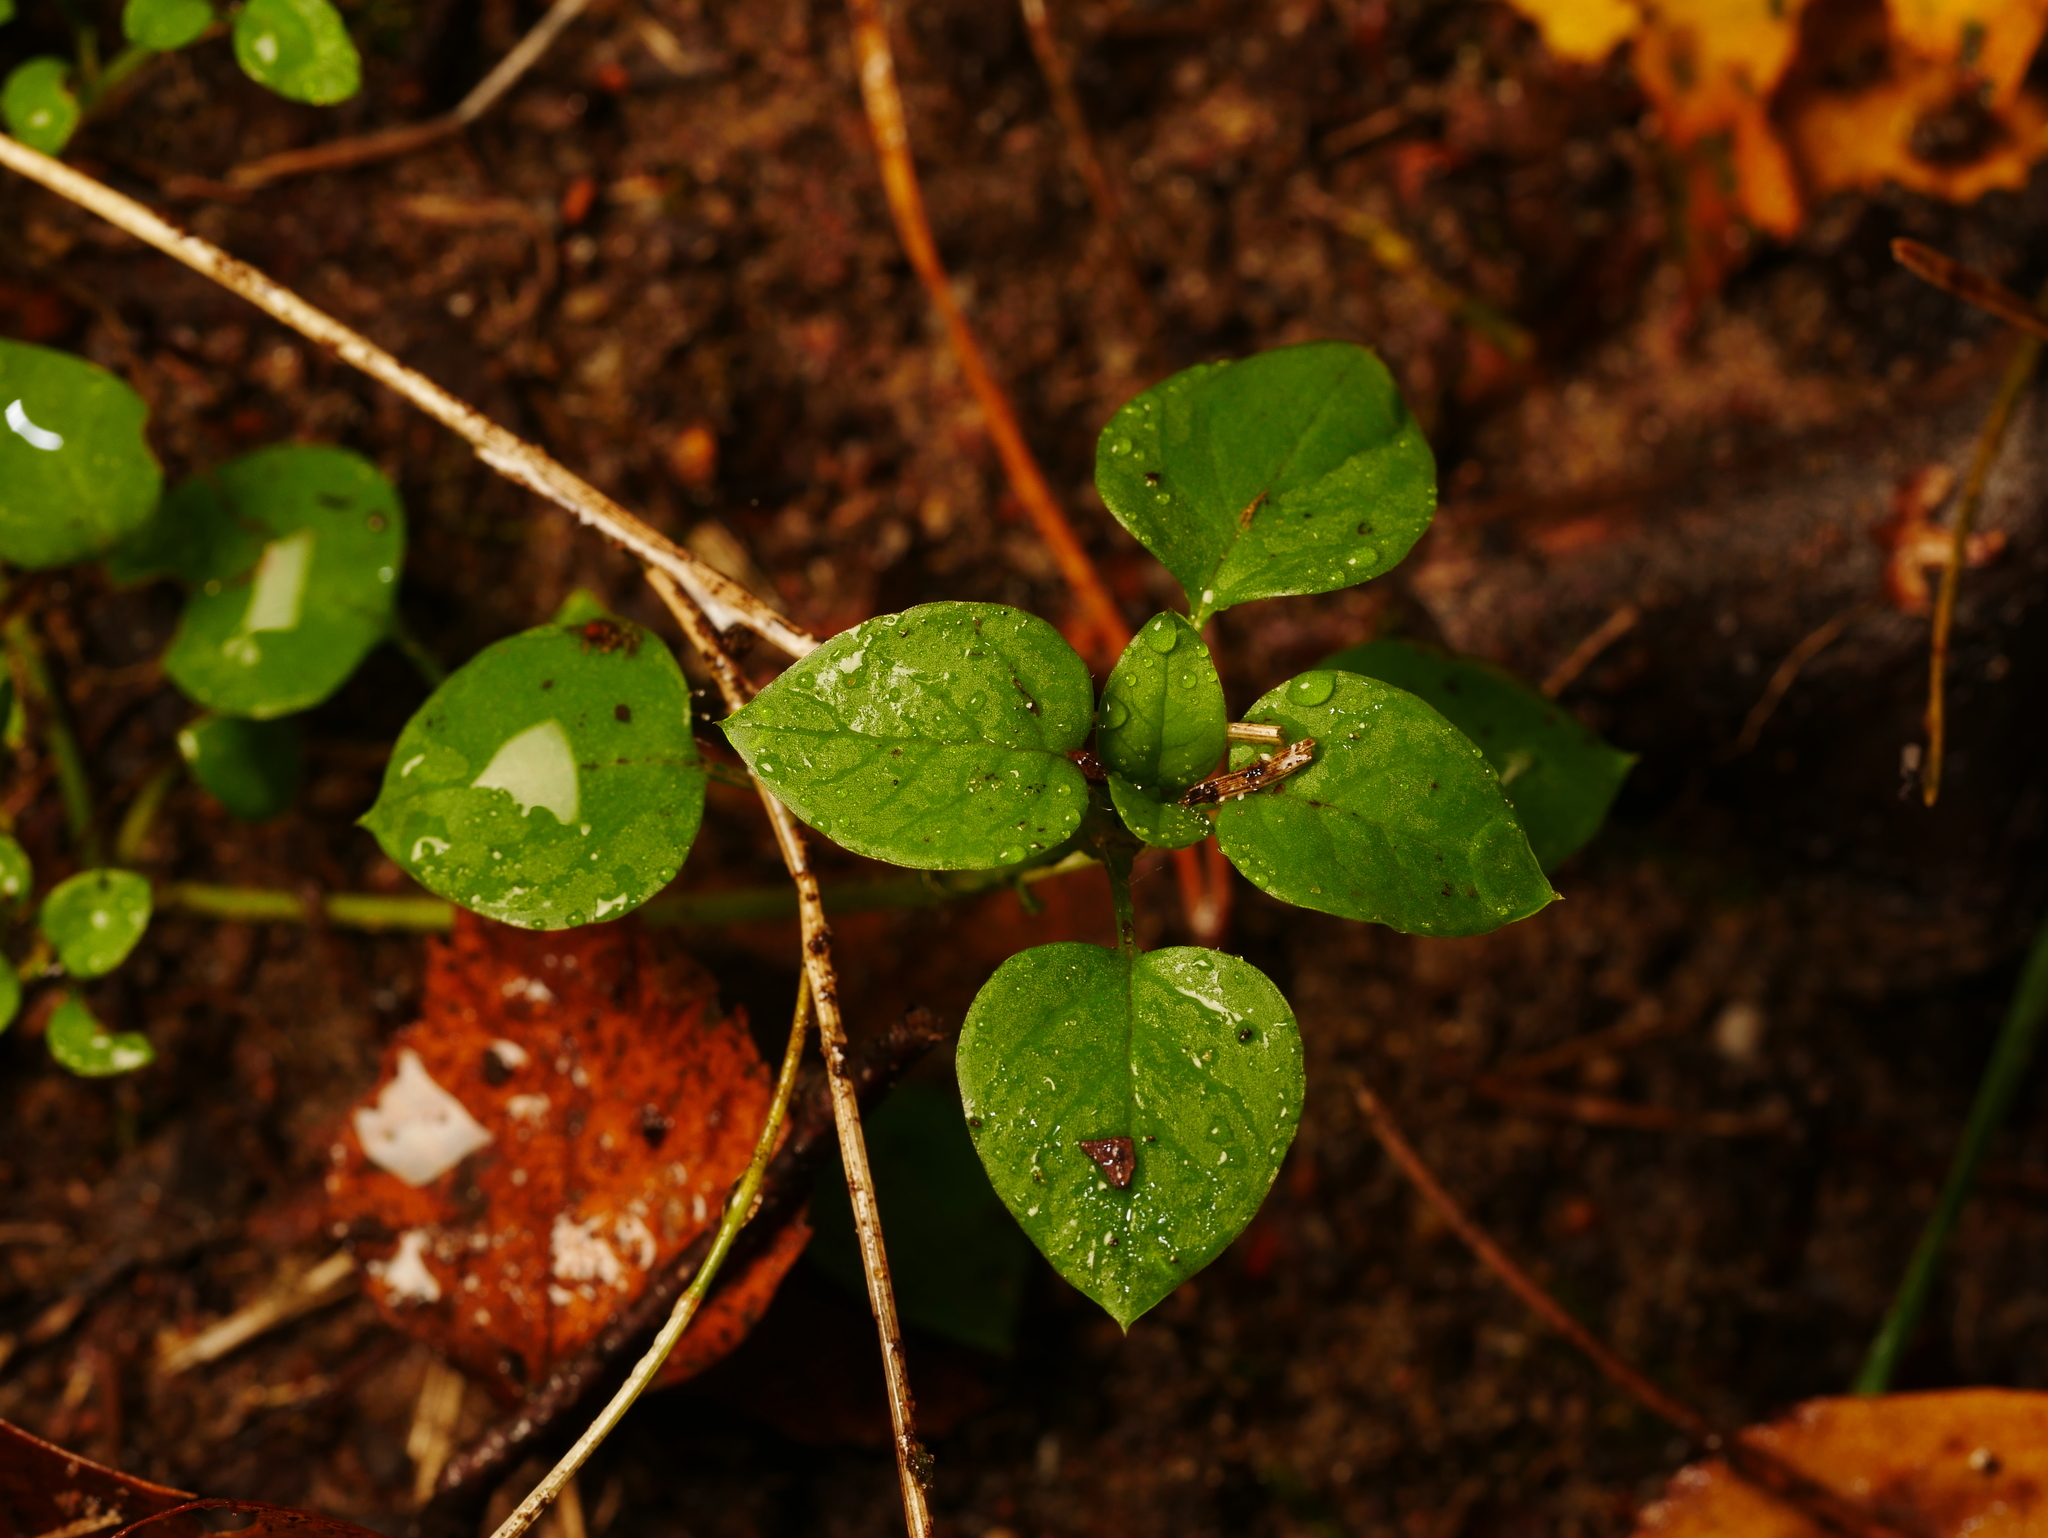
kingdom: Plantae
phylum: Tracheophyta
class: Magnoliopsida
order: Caryophyllales
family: Caryophyllaceae
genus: Stellaria
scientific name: Stellaria media
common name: Common chickweed
